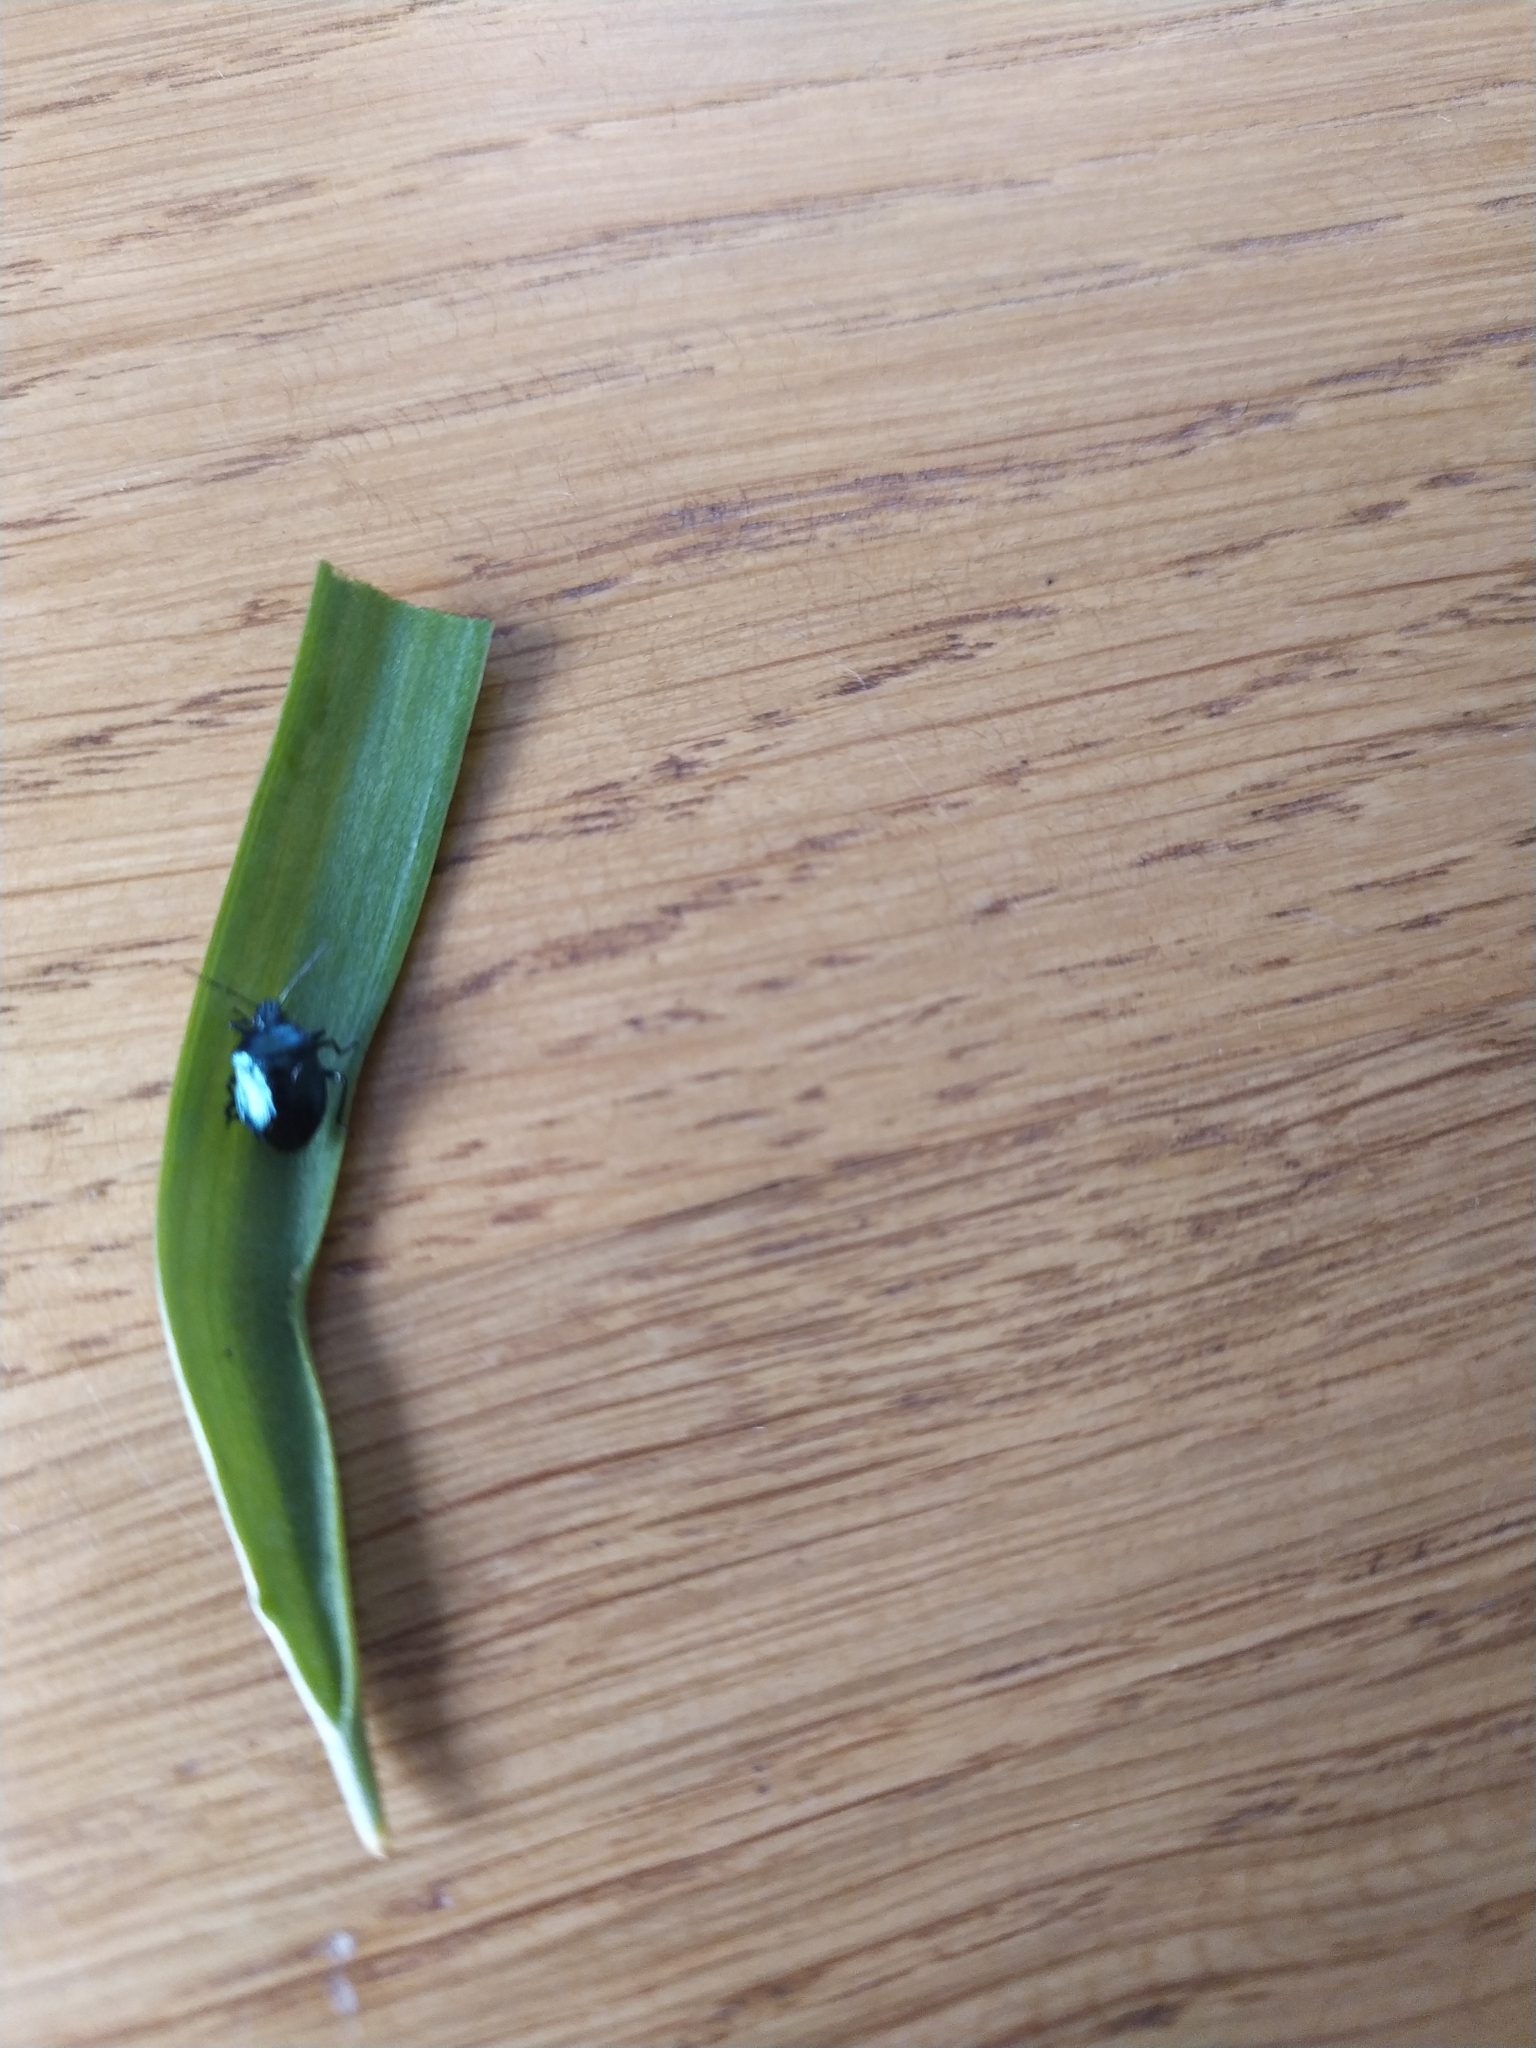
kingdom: Animalia
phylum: Arthropoda
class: Insecta
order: Hemiptera
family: Pentatomidae
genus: Zicrona
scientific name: Zicrona caerulea
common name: Blue shieldbug
